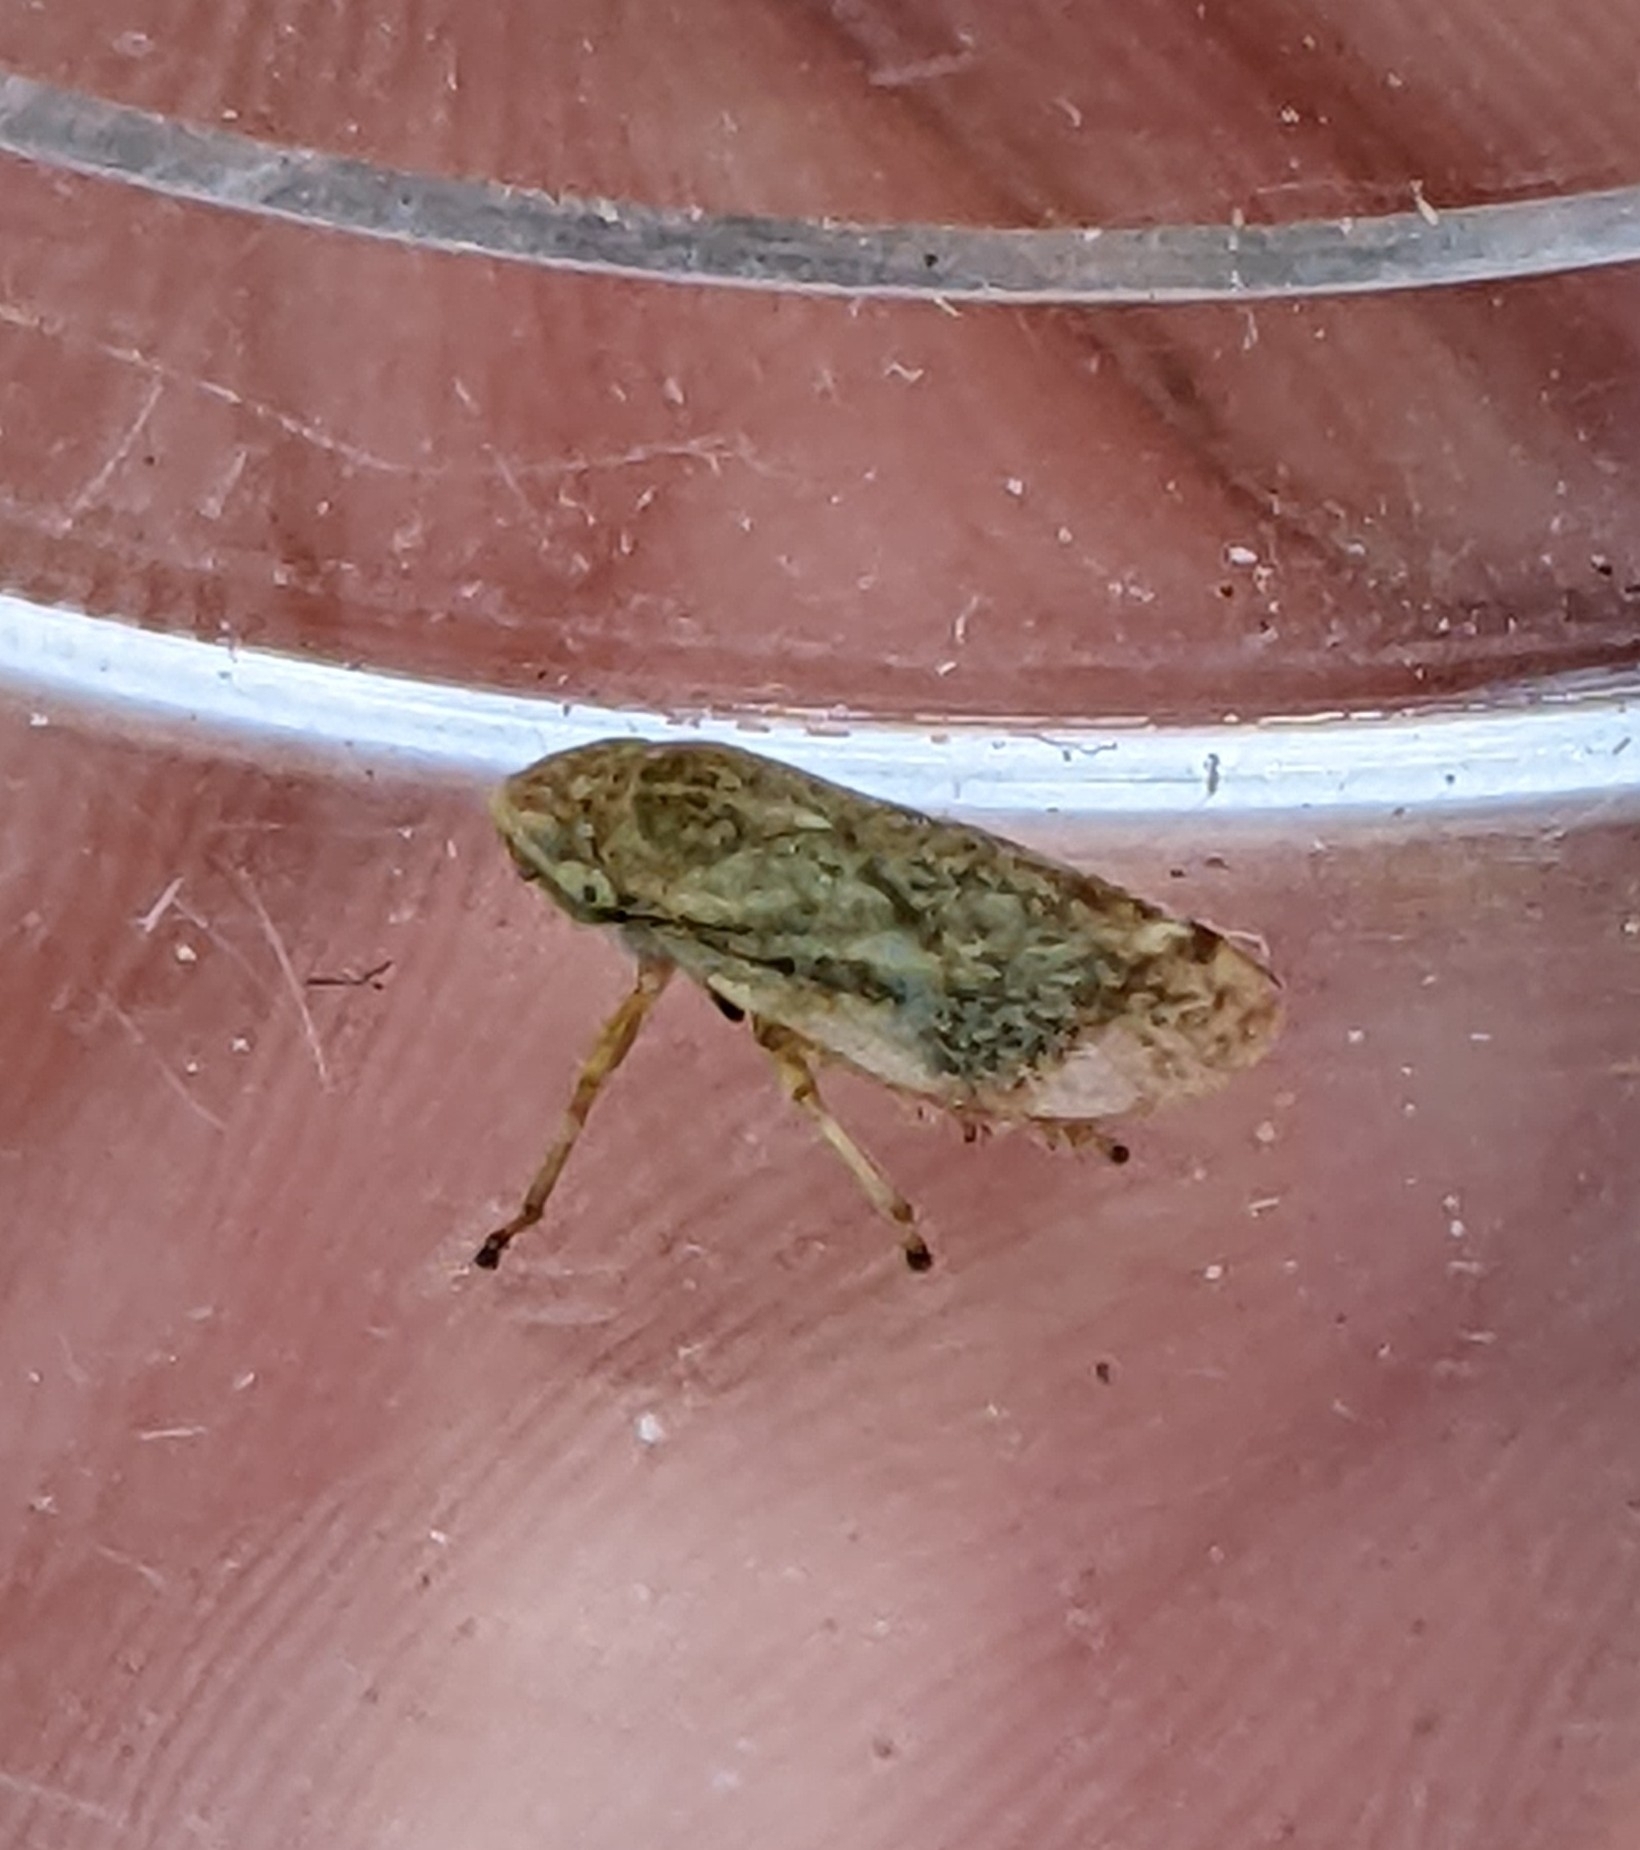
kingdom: Animalia
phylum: Arthropoda
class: Insecta
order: Hemiptera
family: Aphrophoridae
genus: Philaenus
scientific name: Philaenus spumarius
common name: Meadow spittlebug
